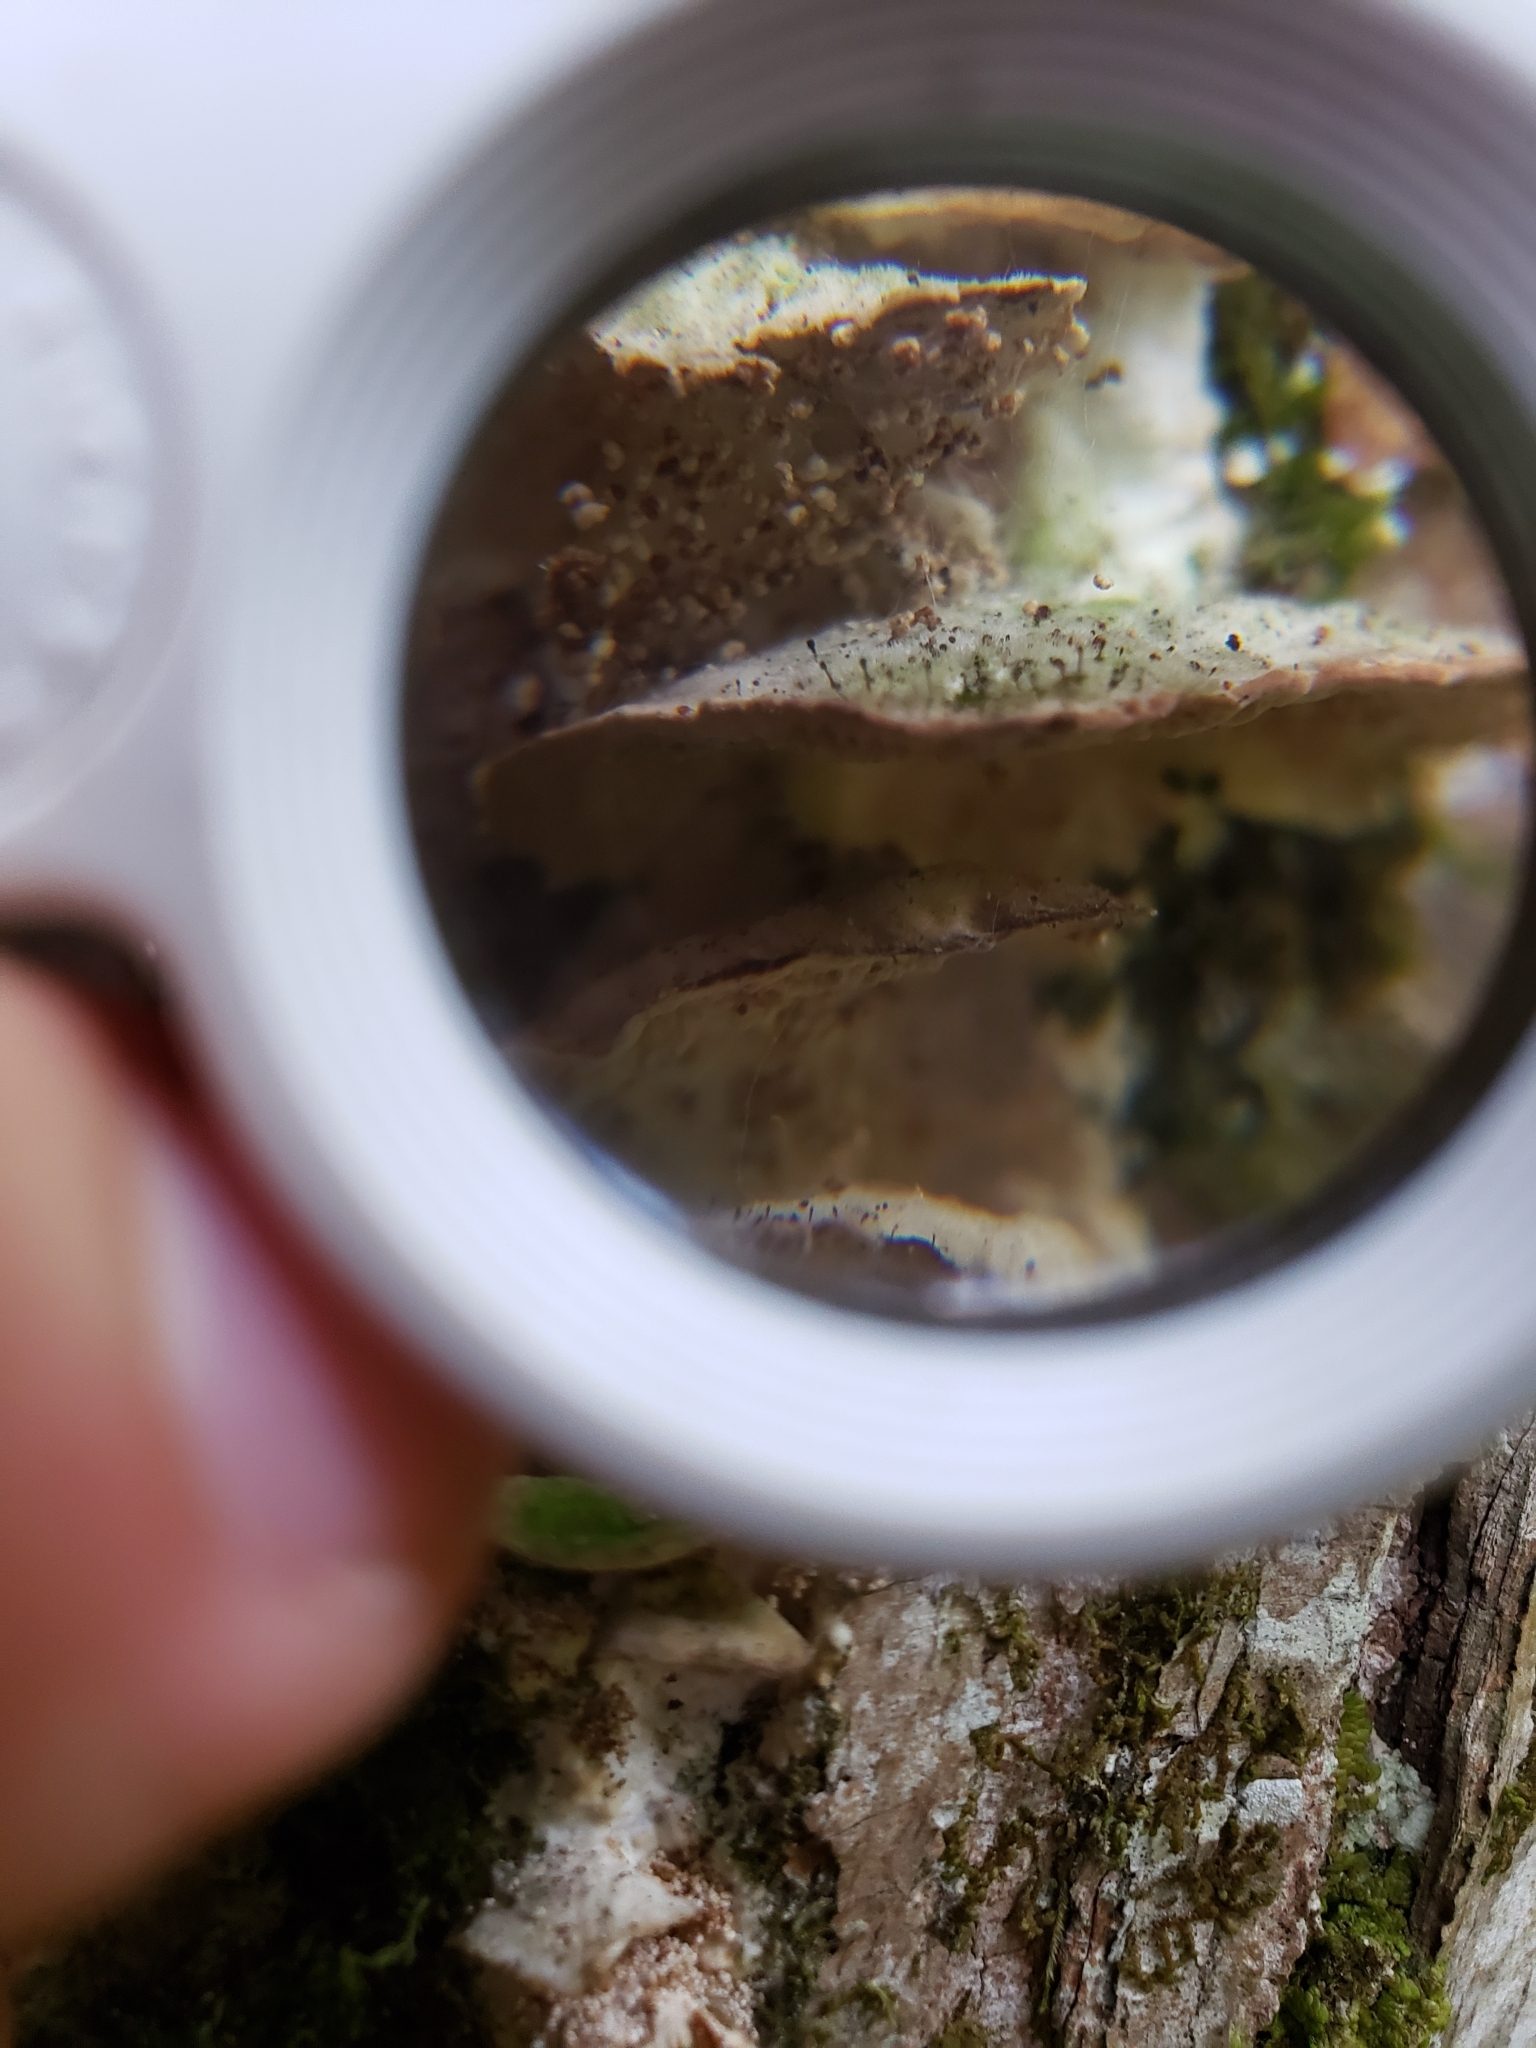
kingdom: Fungi
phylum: Ascomycota
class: Eurotiomycetes
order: Mycocaliciales
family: Mycocaliciaceae
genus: Phaeocalicium
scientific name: Phaeocalicium polyporaeum
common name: Fairy pins
